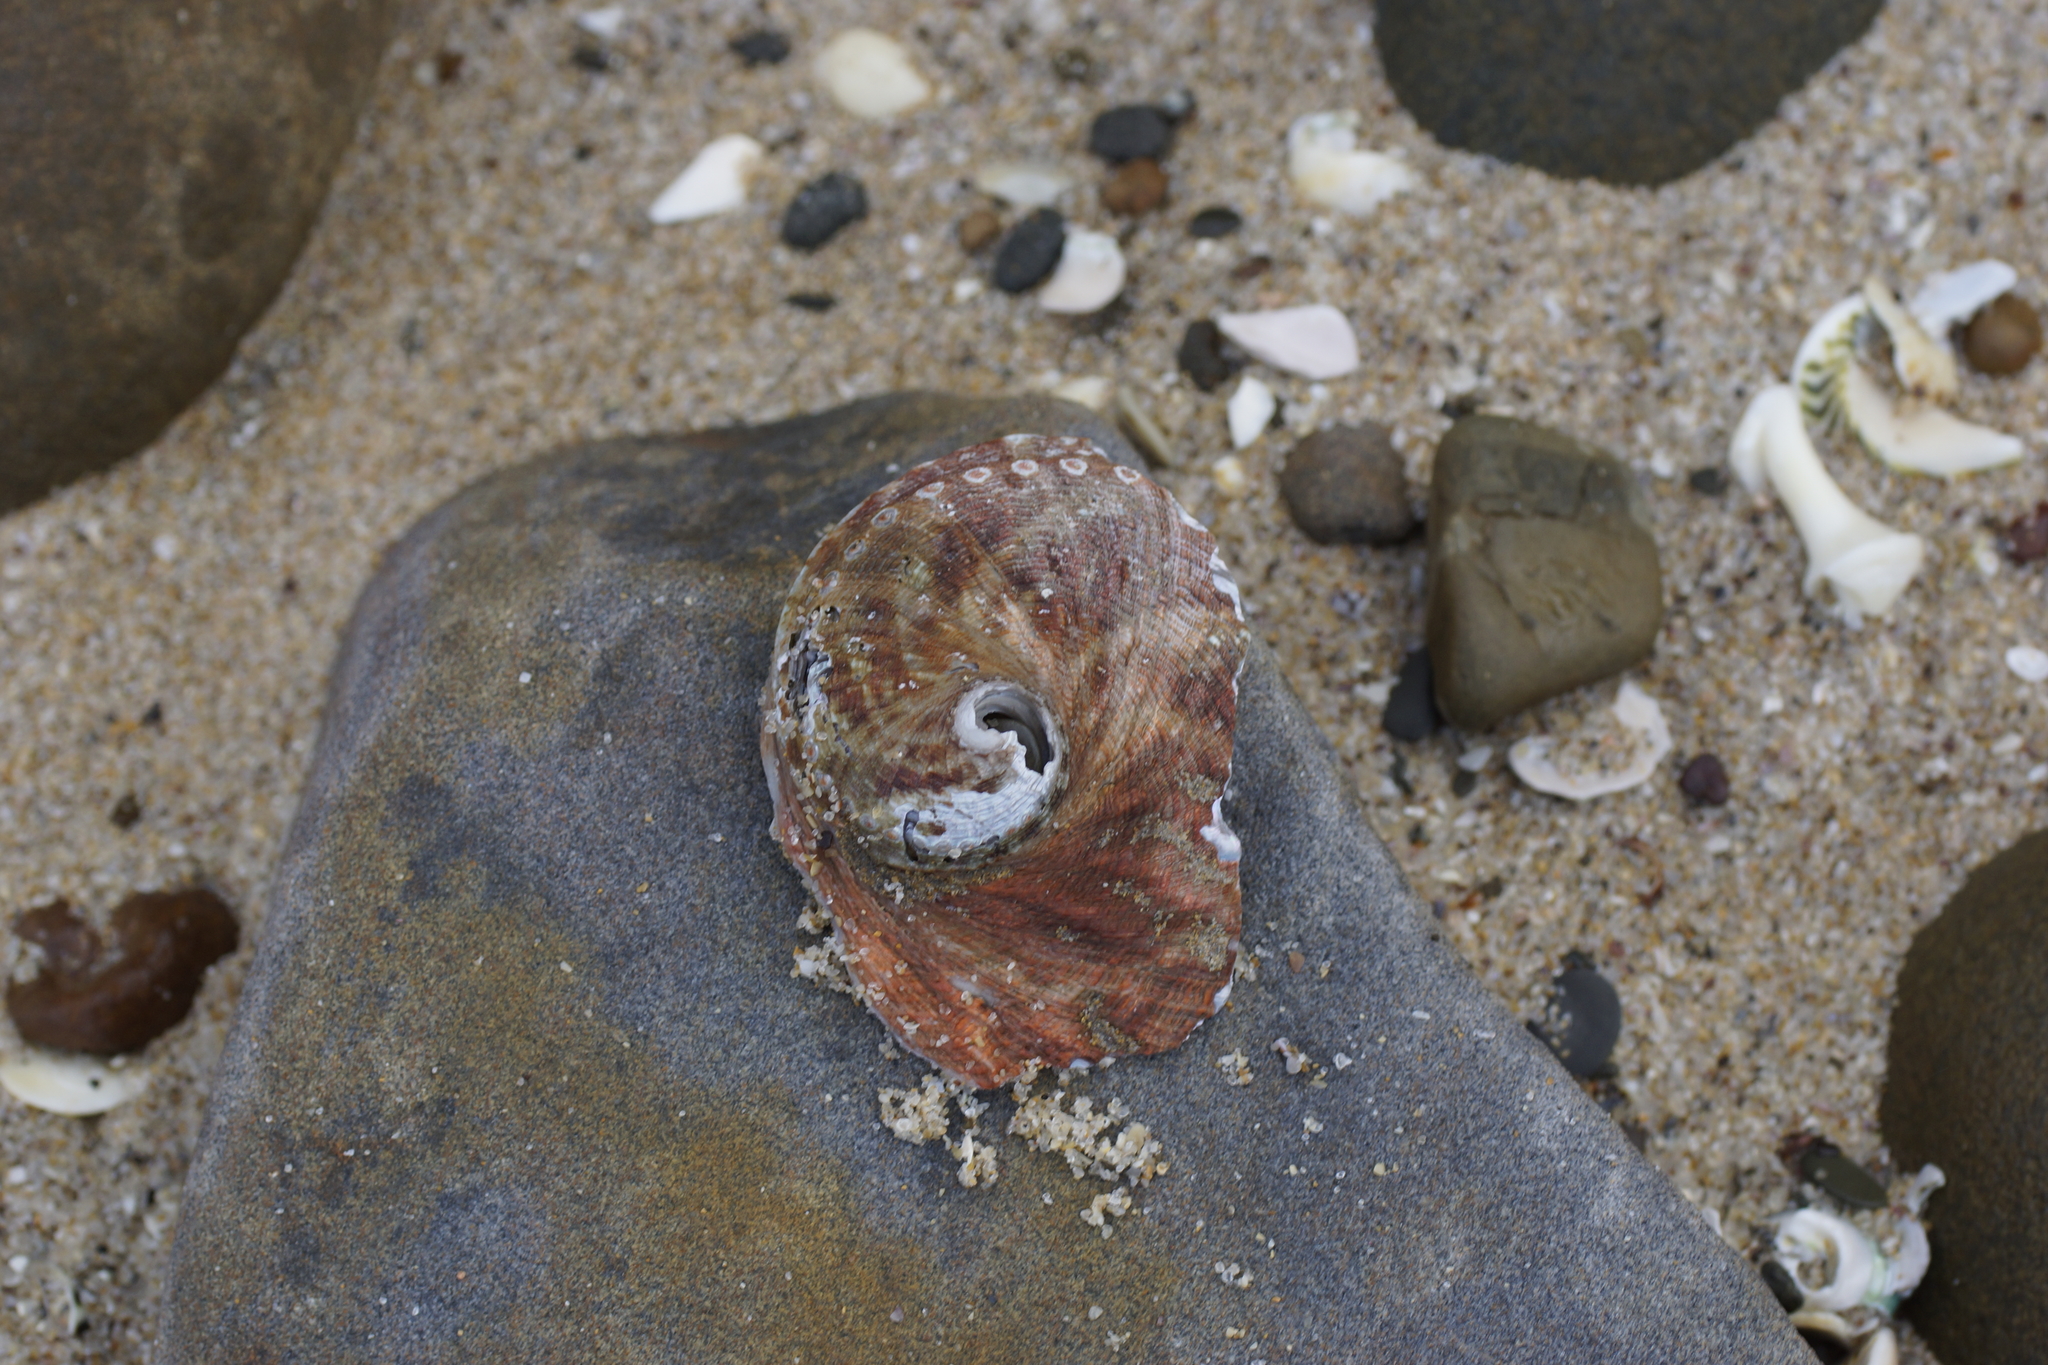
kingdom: Animalia
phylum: Mollusca
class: Gastropoda
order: Lepetellida
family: Haliotidae
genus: Haliotis
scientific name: Haliotis rubra
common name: Blacklip abalone
